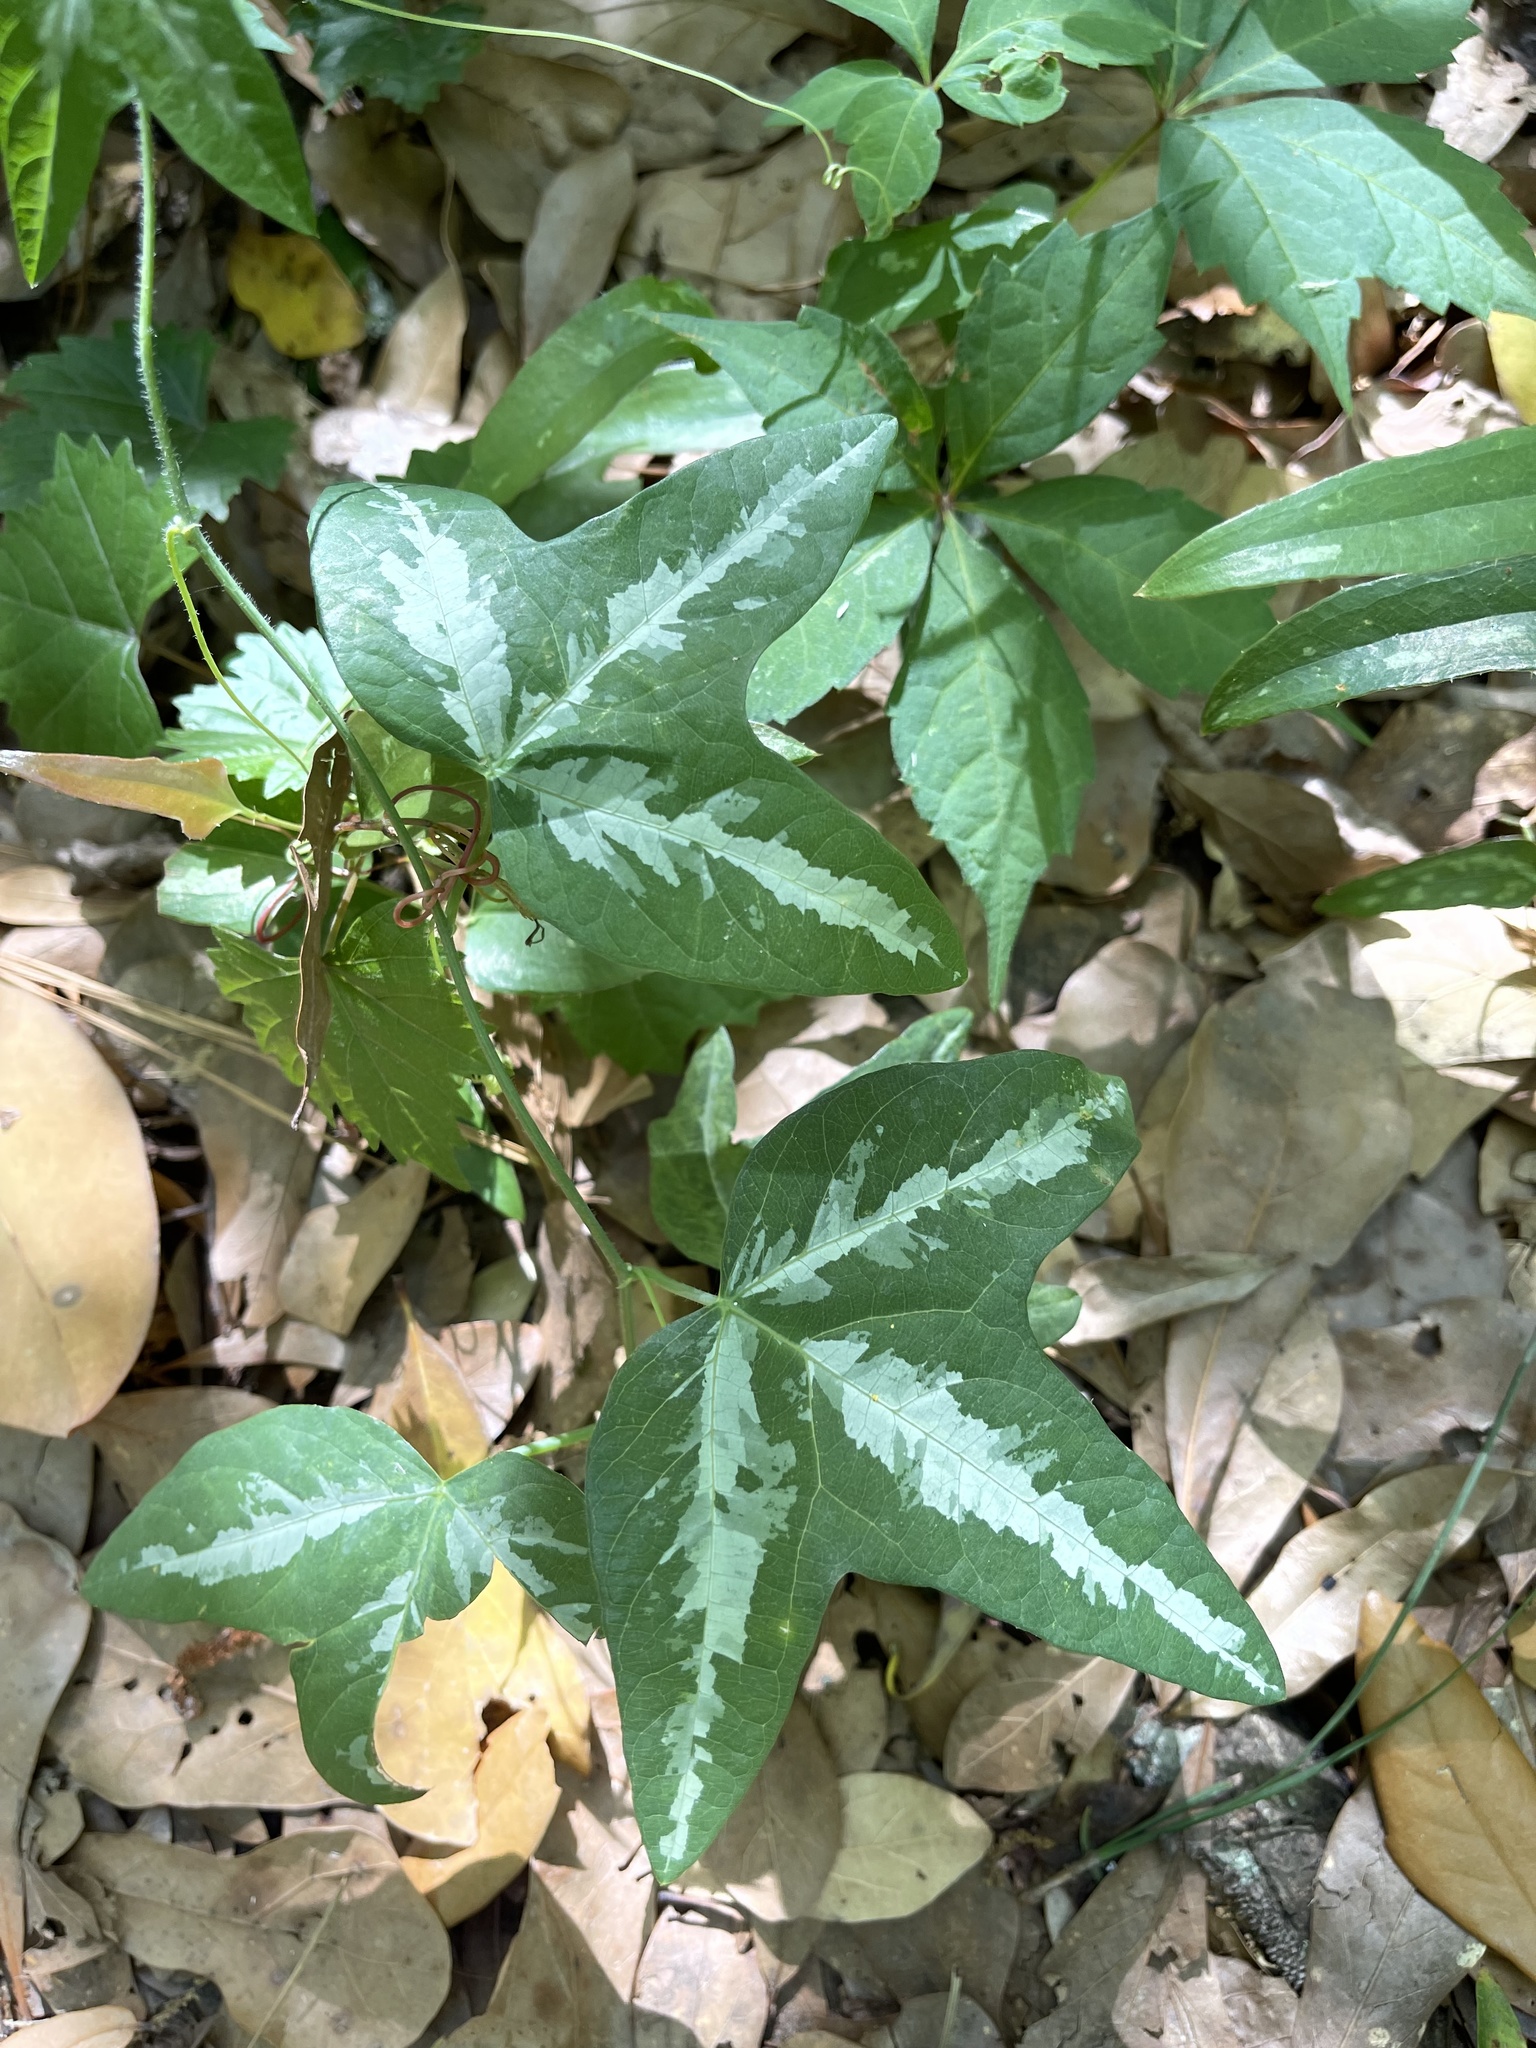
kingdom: Plantae
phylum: Tracheophyta
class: Magnoliopsida
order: Malpighiales
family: Passifloraceae
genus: Passiflora
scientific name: Passiflora lutea
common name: Yellow passionflower
